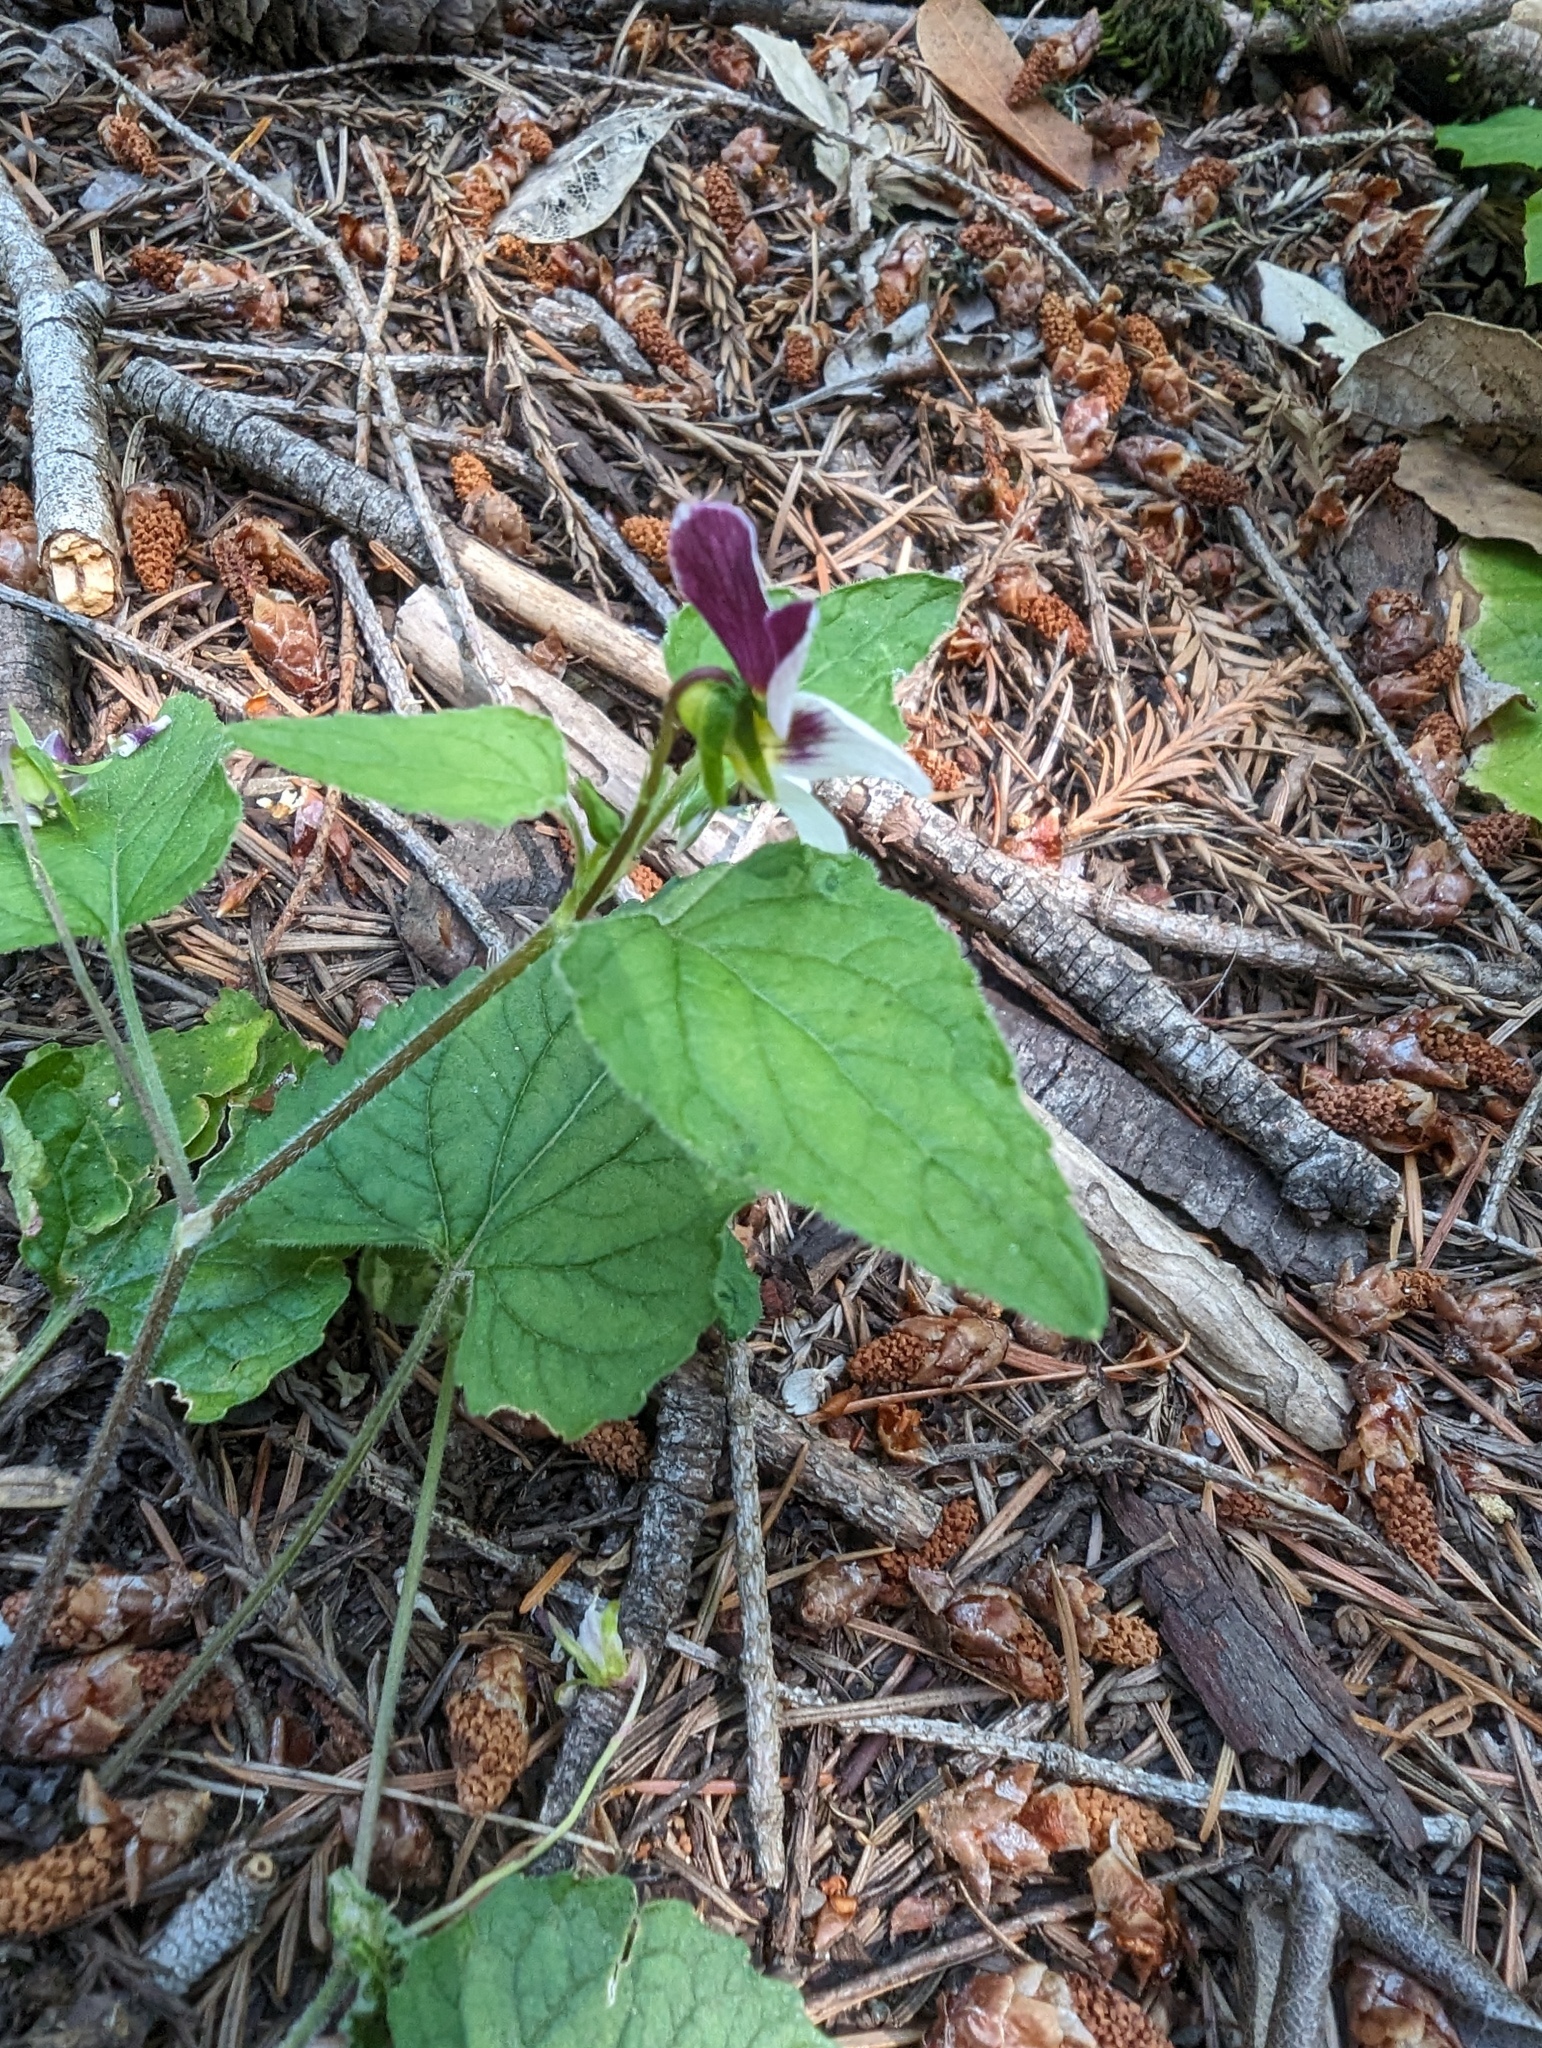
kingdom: Plantae
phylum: Tracheophyta
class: Magnoliopsida
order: Malpighiales
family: Violaceae
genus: Viola
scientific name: Viola ocellata
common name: Western heart's ease
